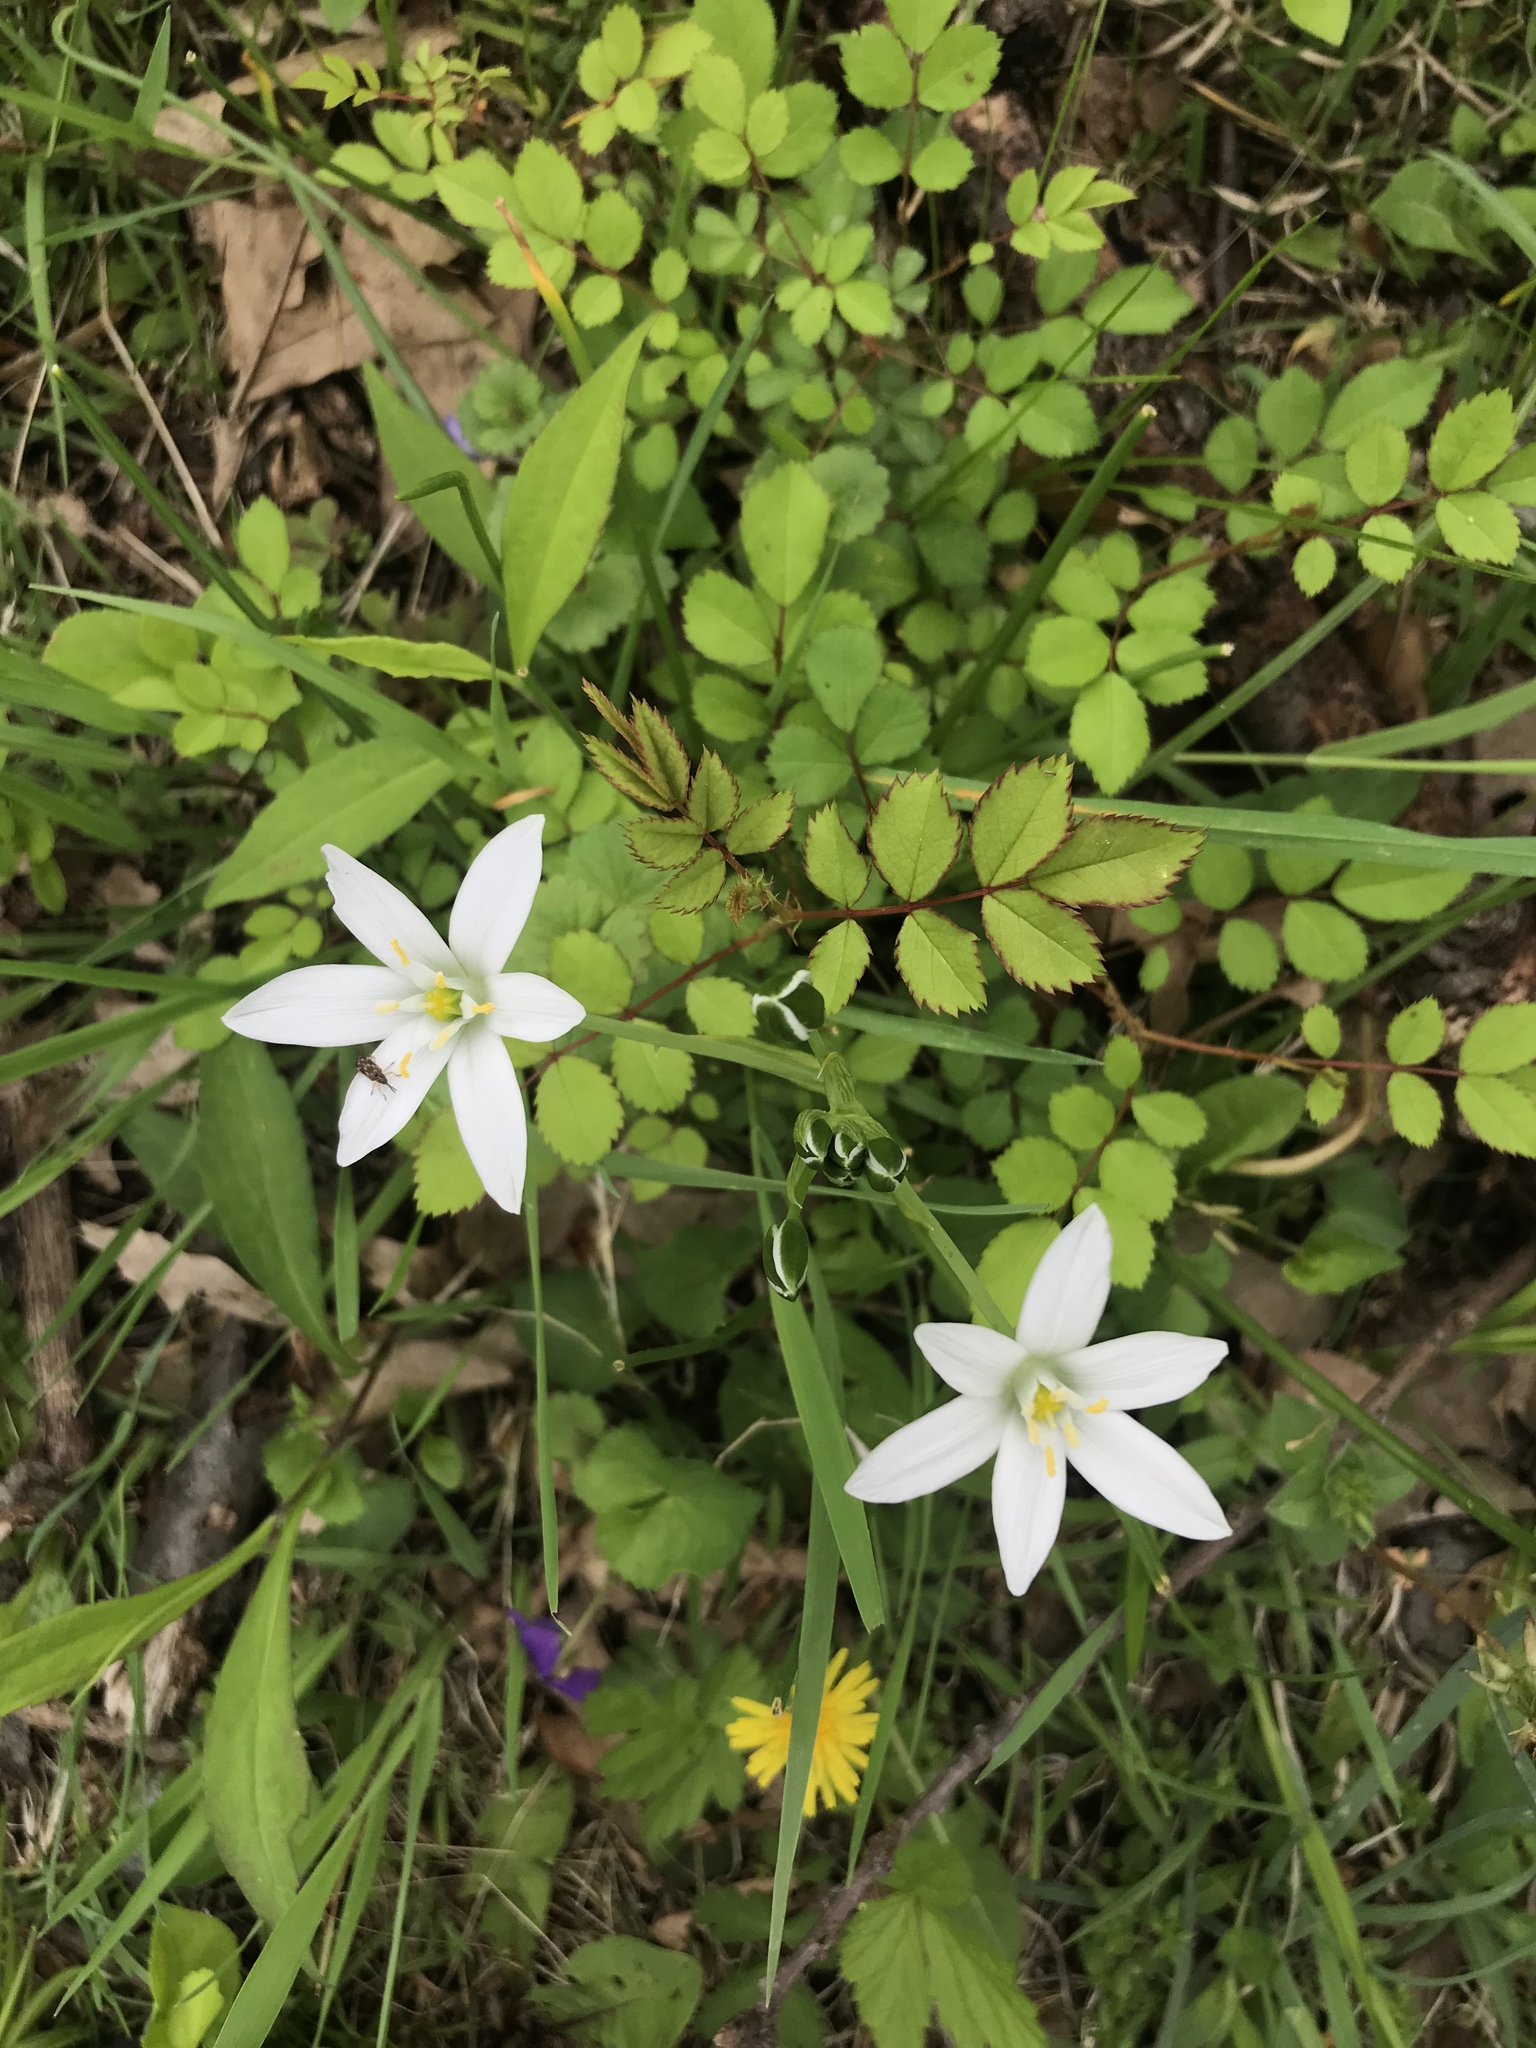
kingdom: Plantae
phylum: Tracheophyta
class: Liliopsida
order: Asparagales
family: Asparagaceae
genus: Ornithogalum
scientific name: Ornithogalum umbellatum
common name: Garden star-of-bethlehem
